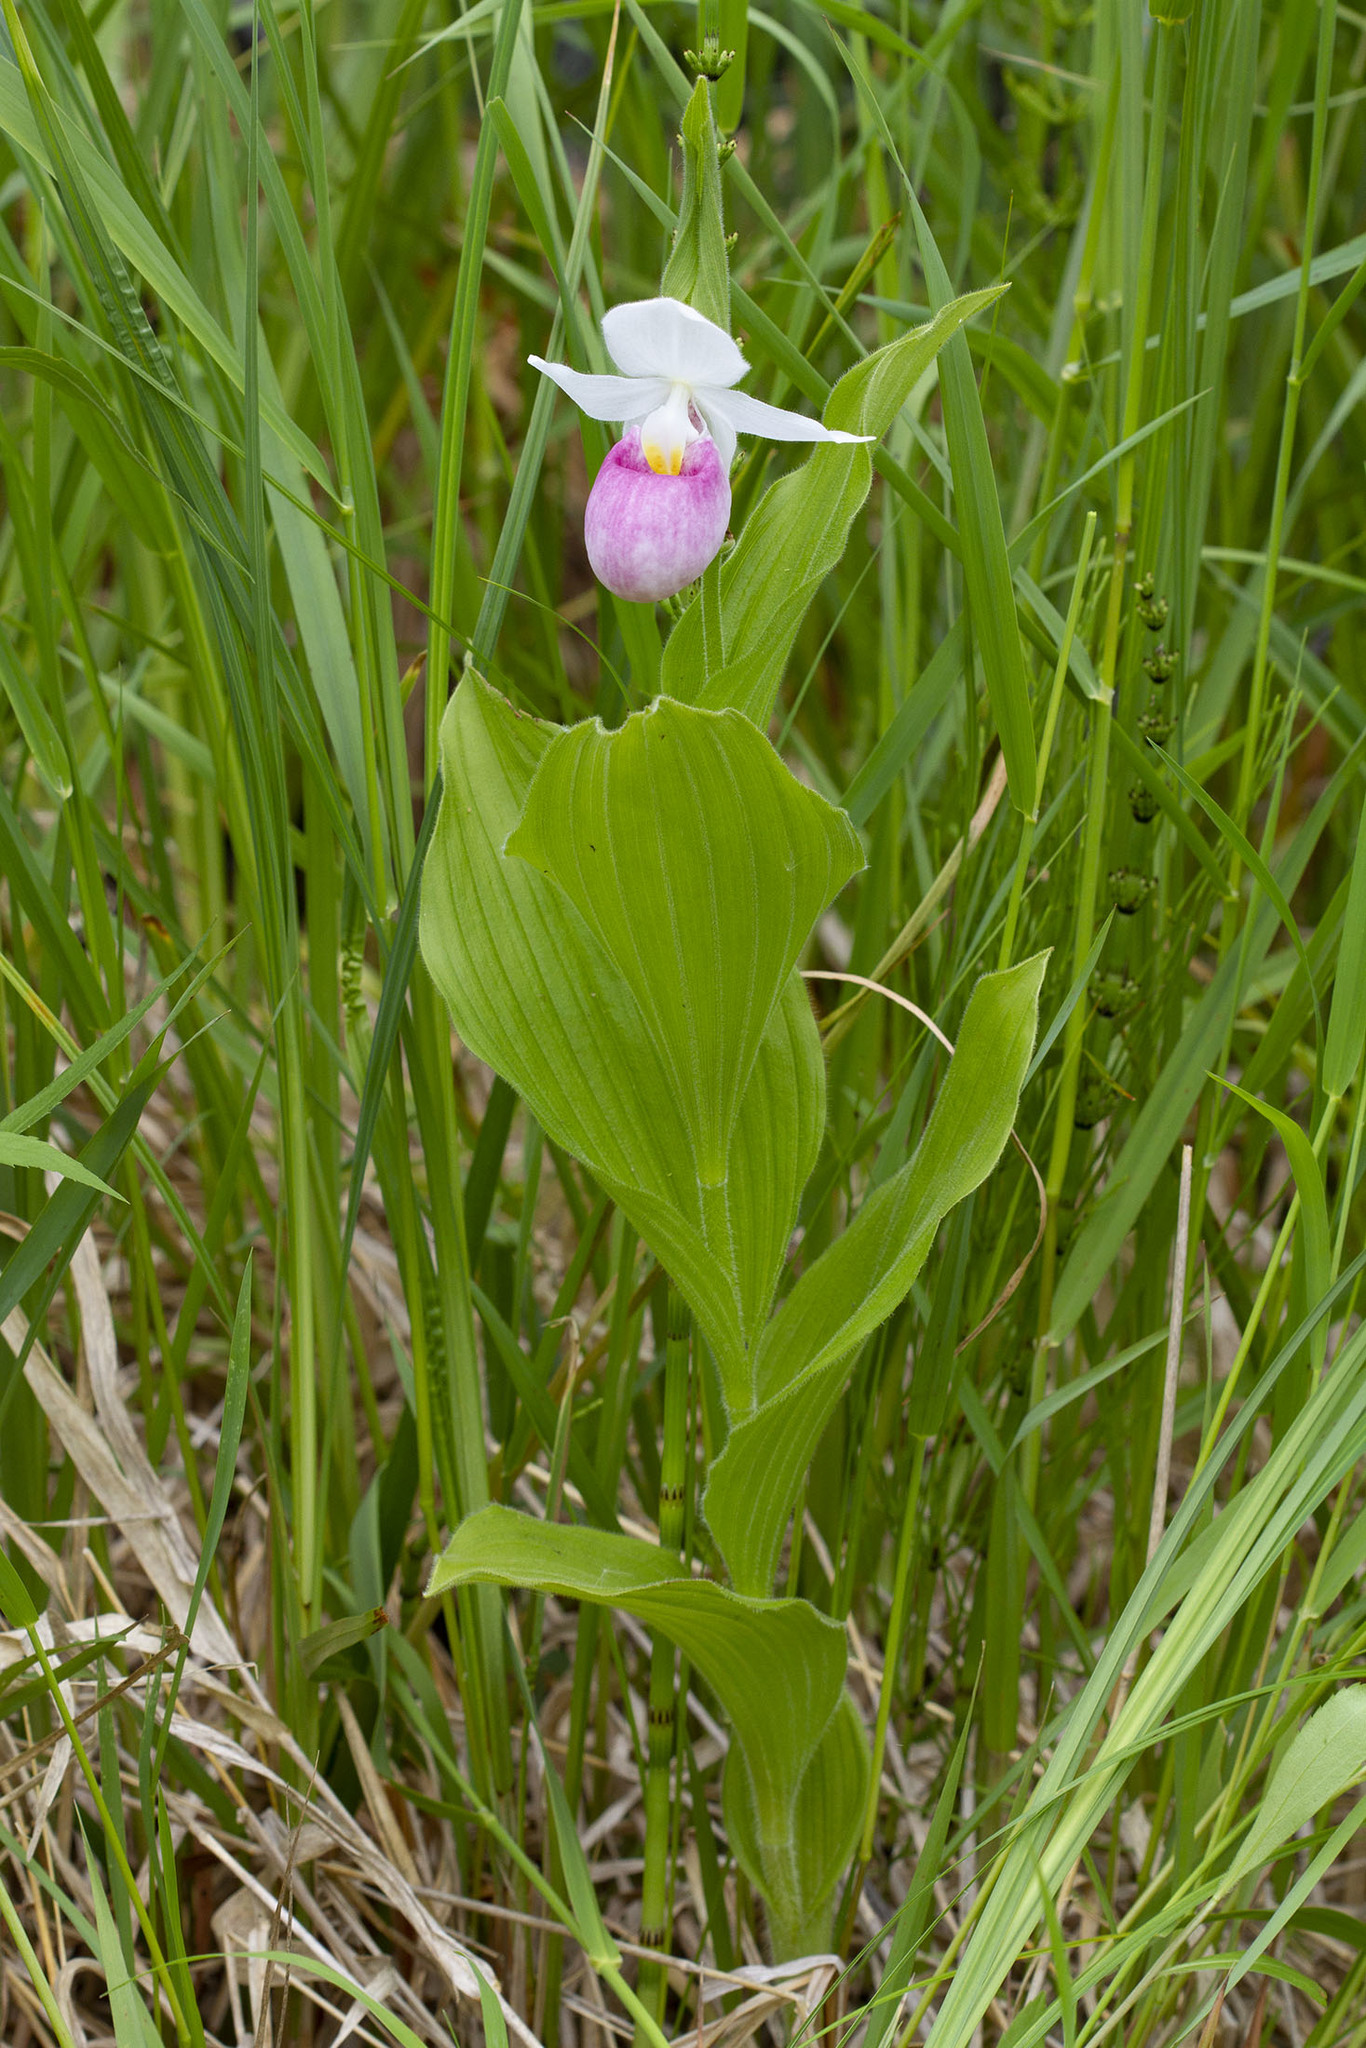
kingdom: Plantae
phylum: Tracheophyta
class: Liliopsida
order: Asparagales
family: Orchidaceae
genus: Cypripedium
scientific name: Cypripedium reginae
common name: Queen lady's-slipper
